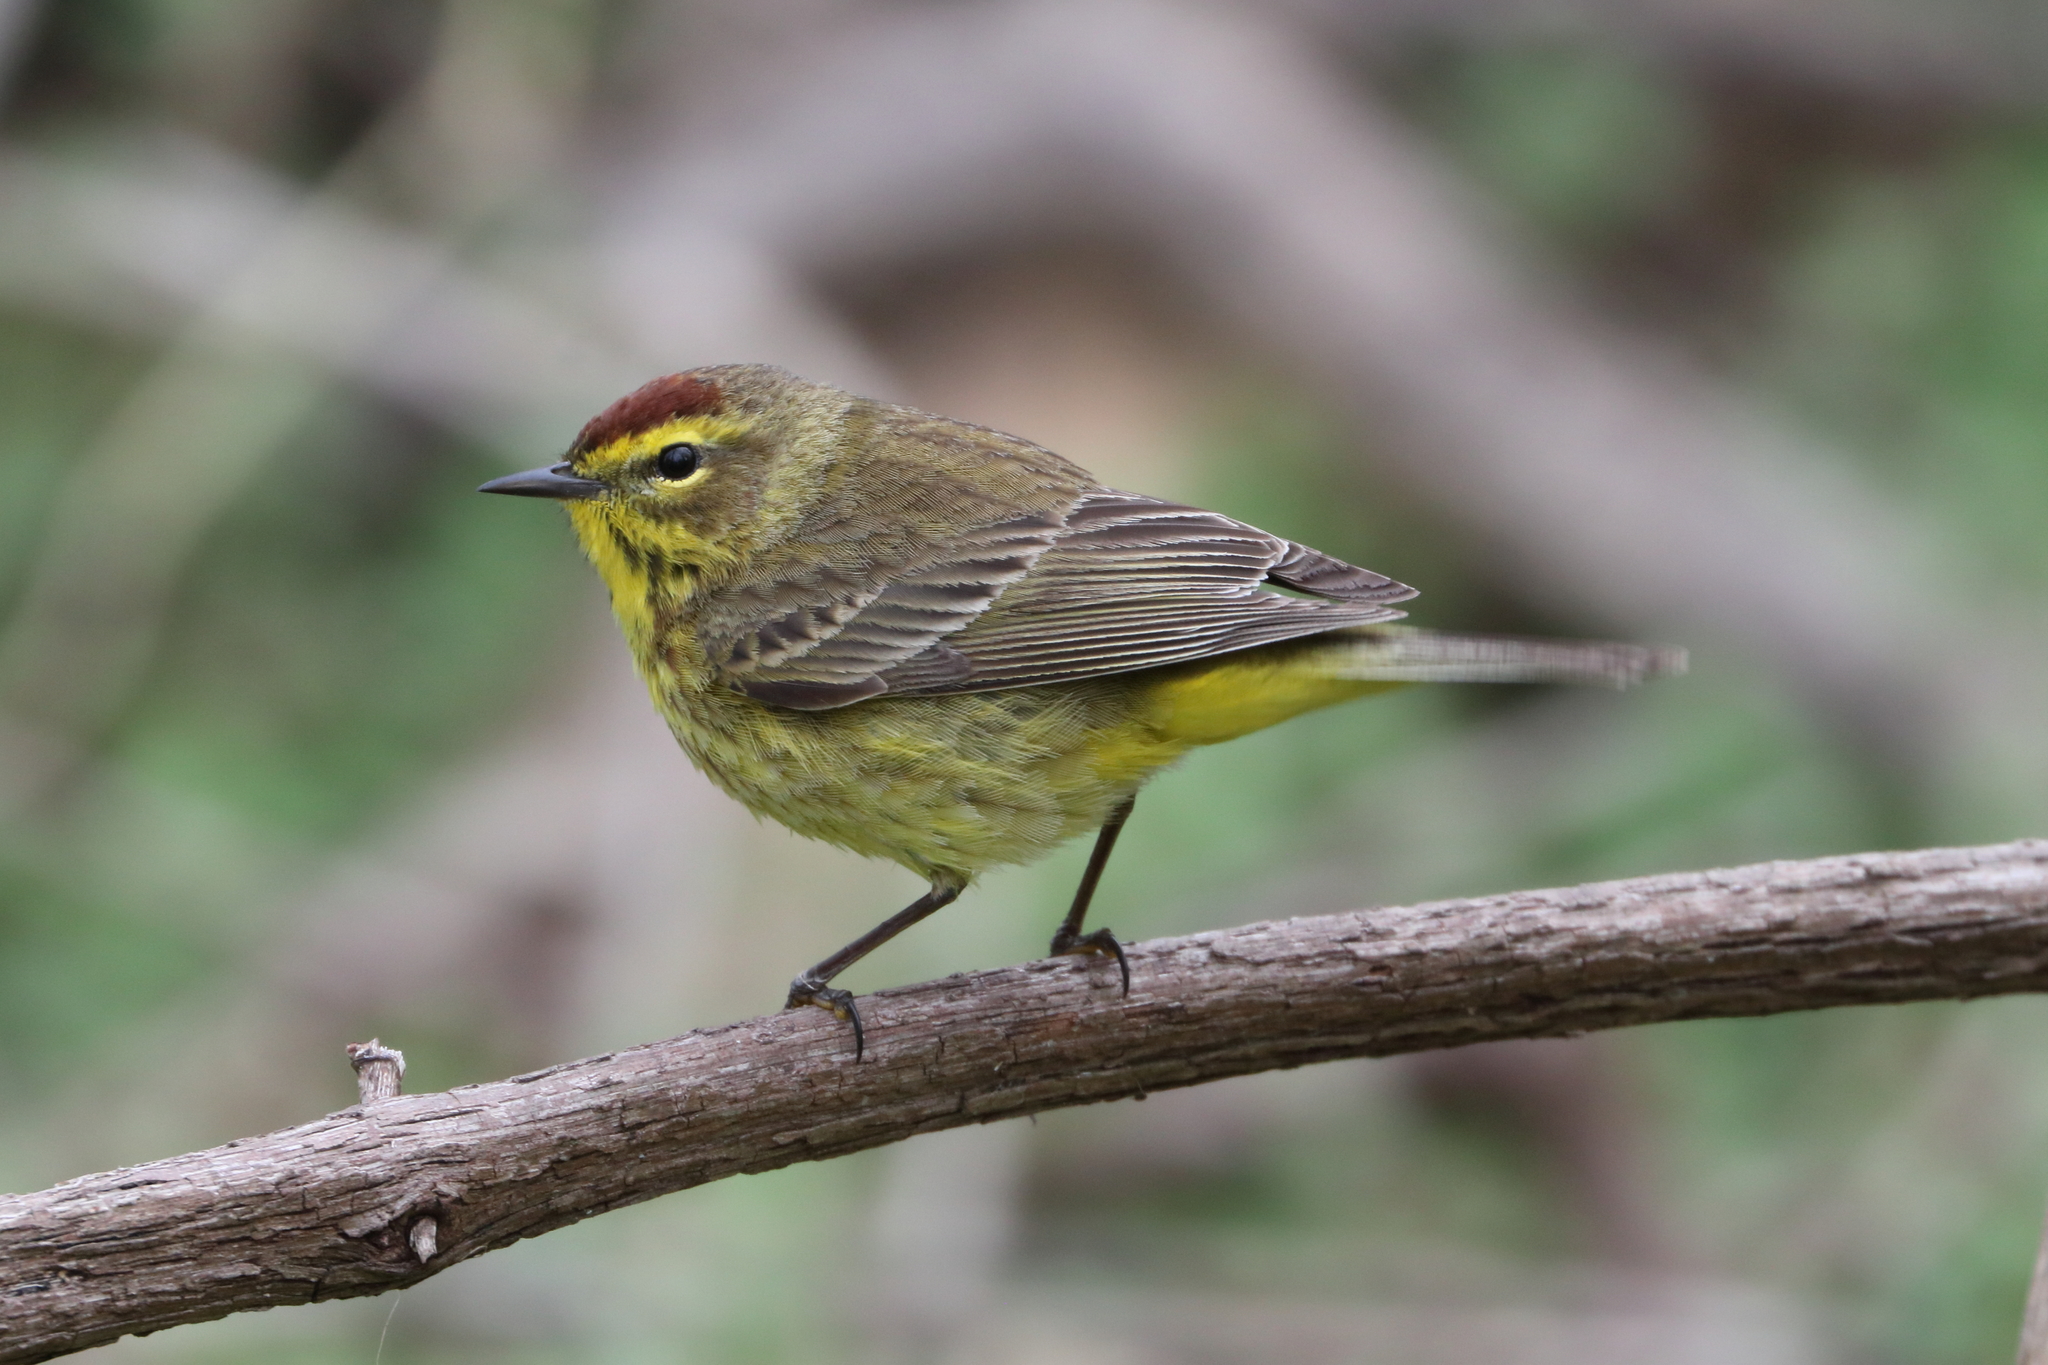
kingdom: Animalia
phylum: Chordata
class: Aves
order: Passeriformes
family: Parulidae
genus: Setophaga
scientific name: Setophaga palmarum
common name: Palm warbler
